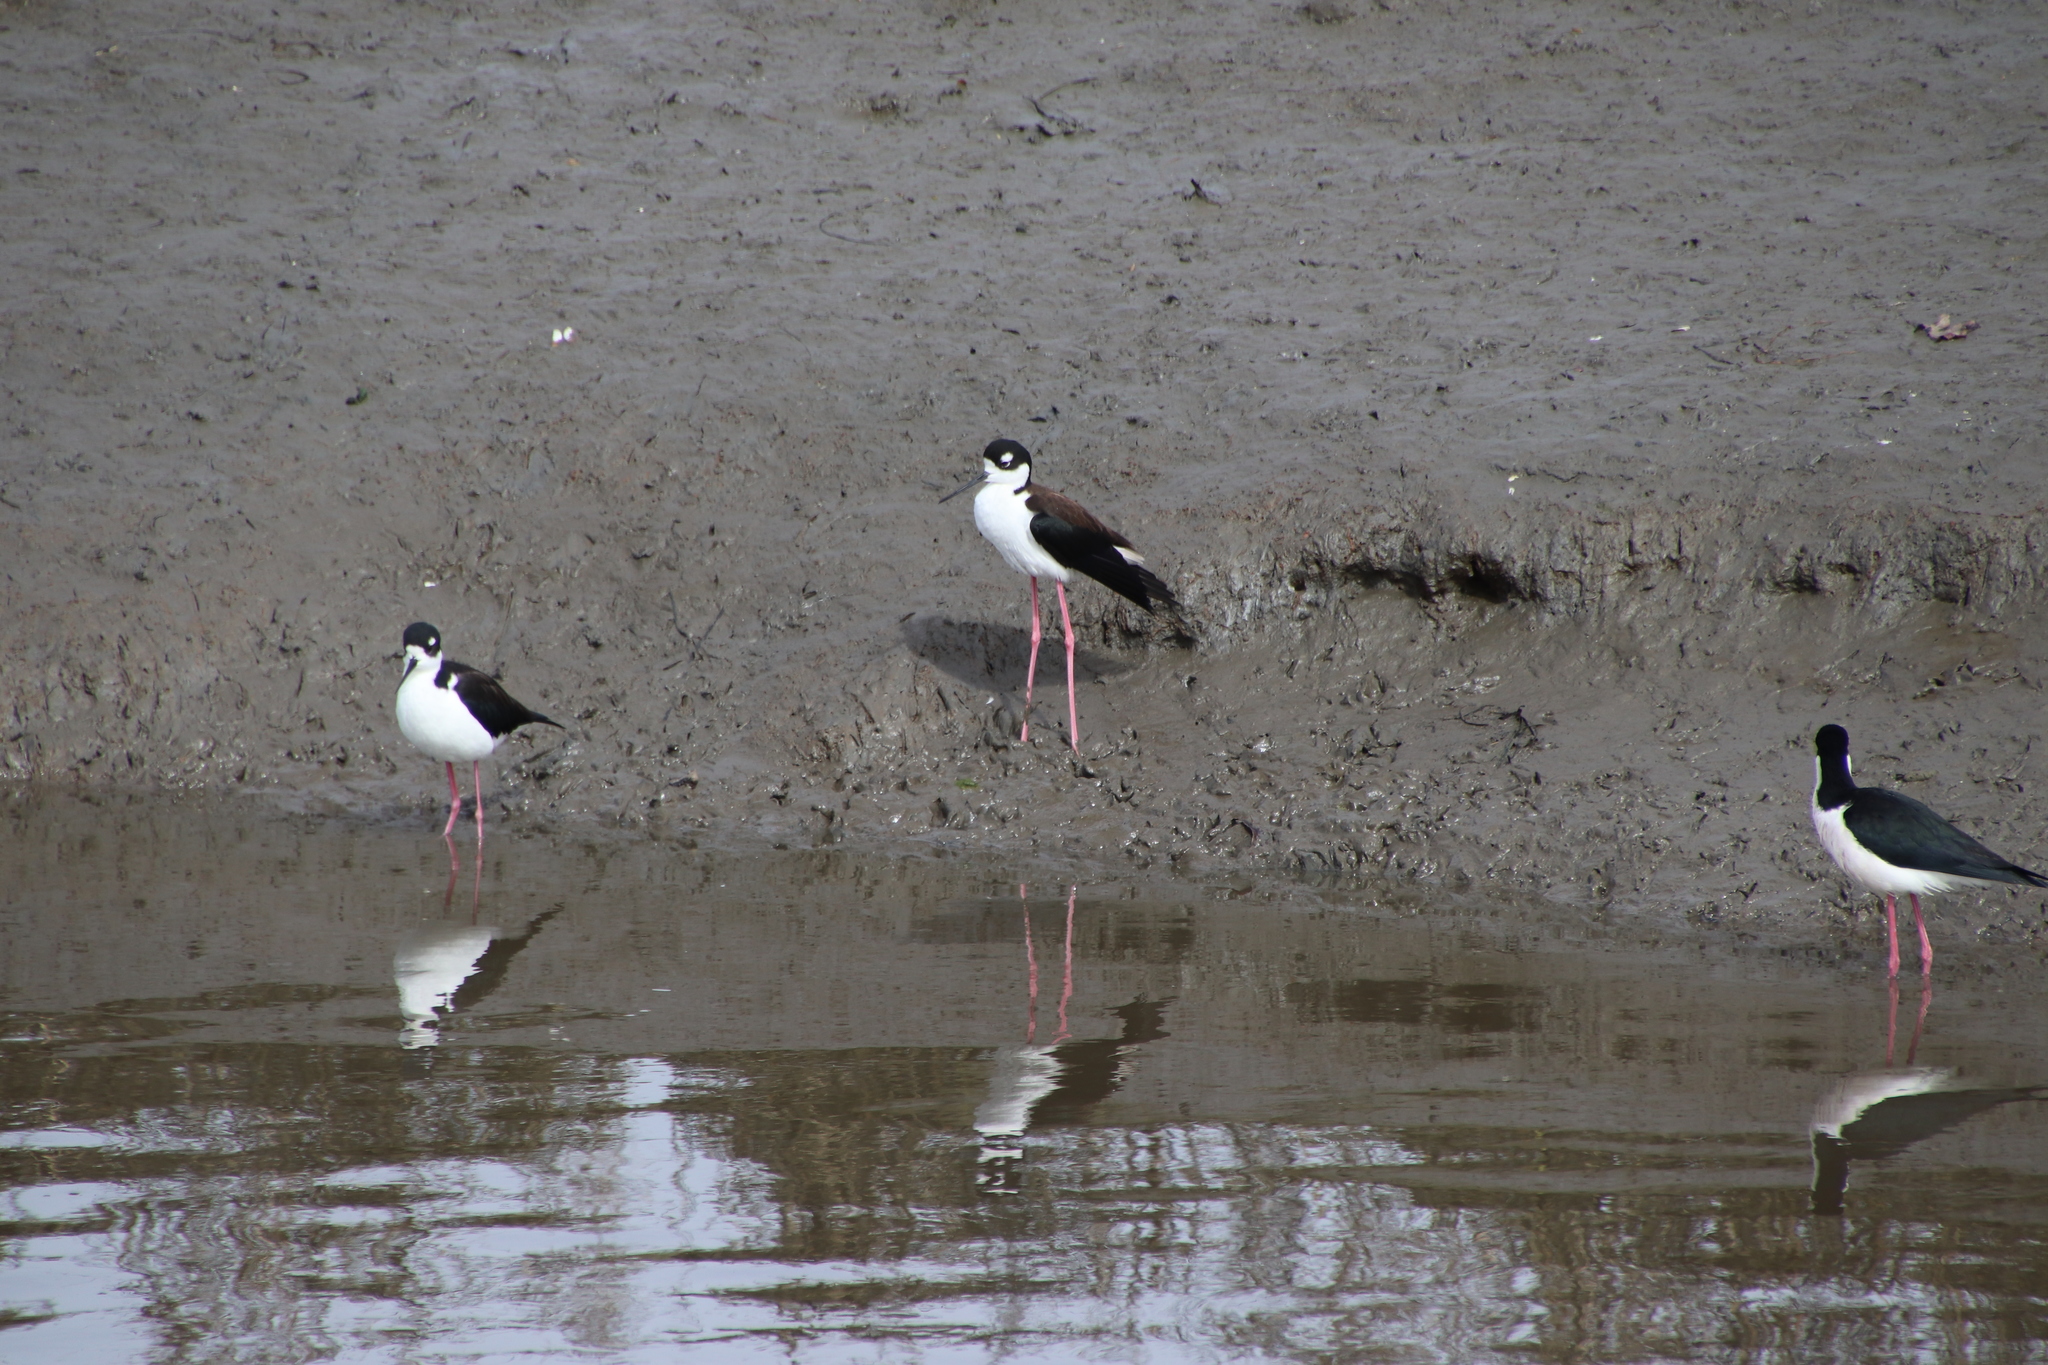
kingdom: Animalia
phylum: Chordata
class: Aves
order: Charadriiformes
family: Recurvirostridae
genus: Himantopus
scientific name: Himantopus mexicanus
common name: Black-necked stilt
